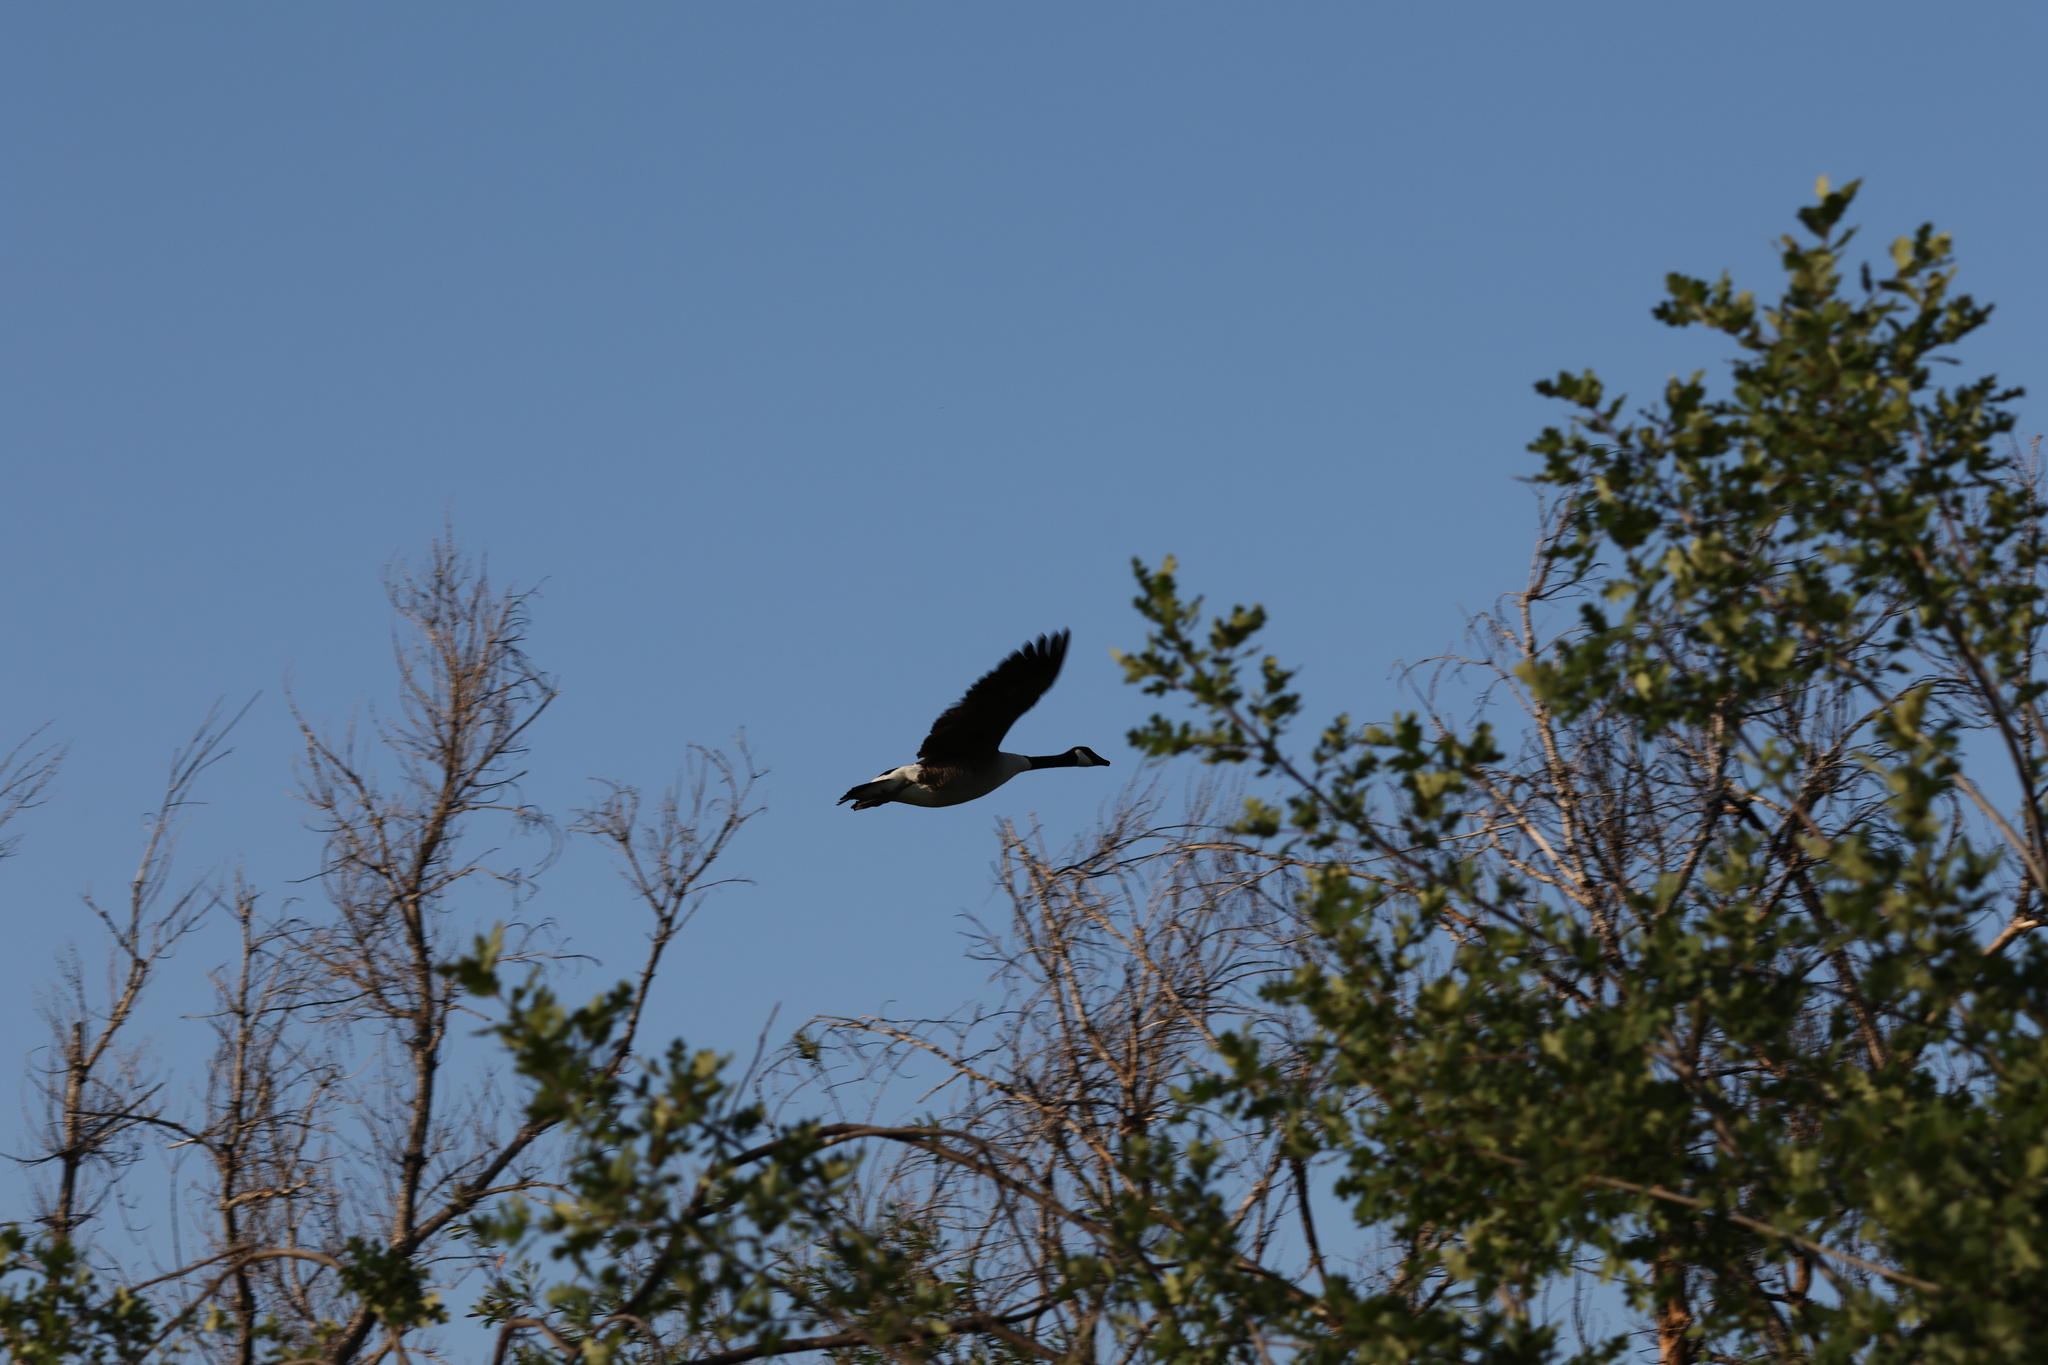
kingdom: Animalia
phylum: Chordata
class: Aves
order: Anseriformes
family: Anatidae
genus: Branta
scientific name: Branta canadensis
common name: Canada goose
